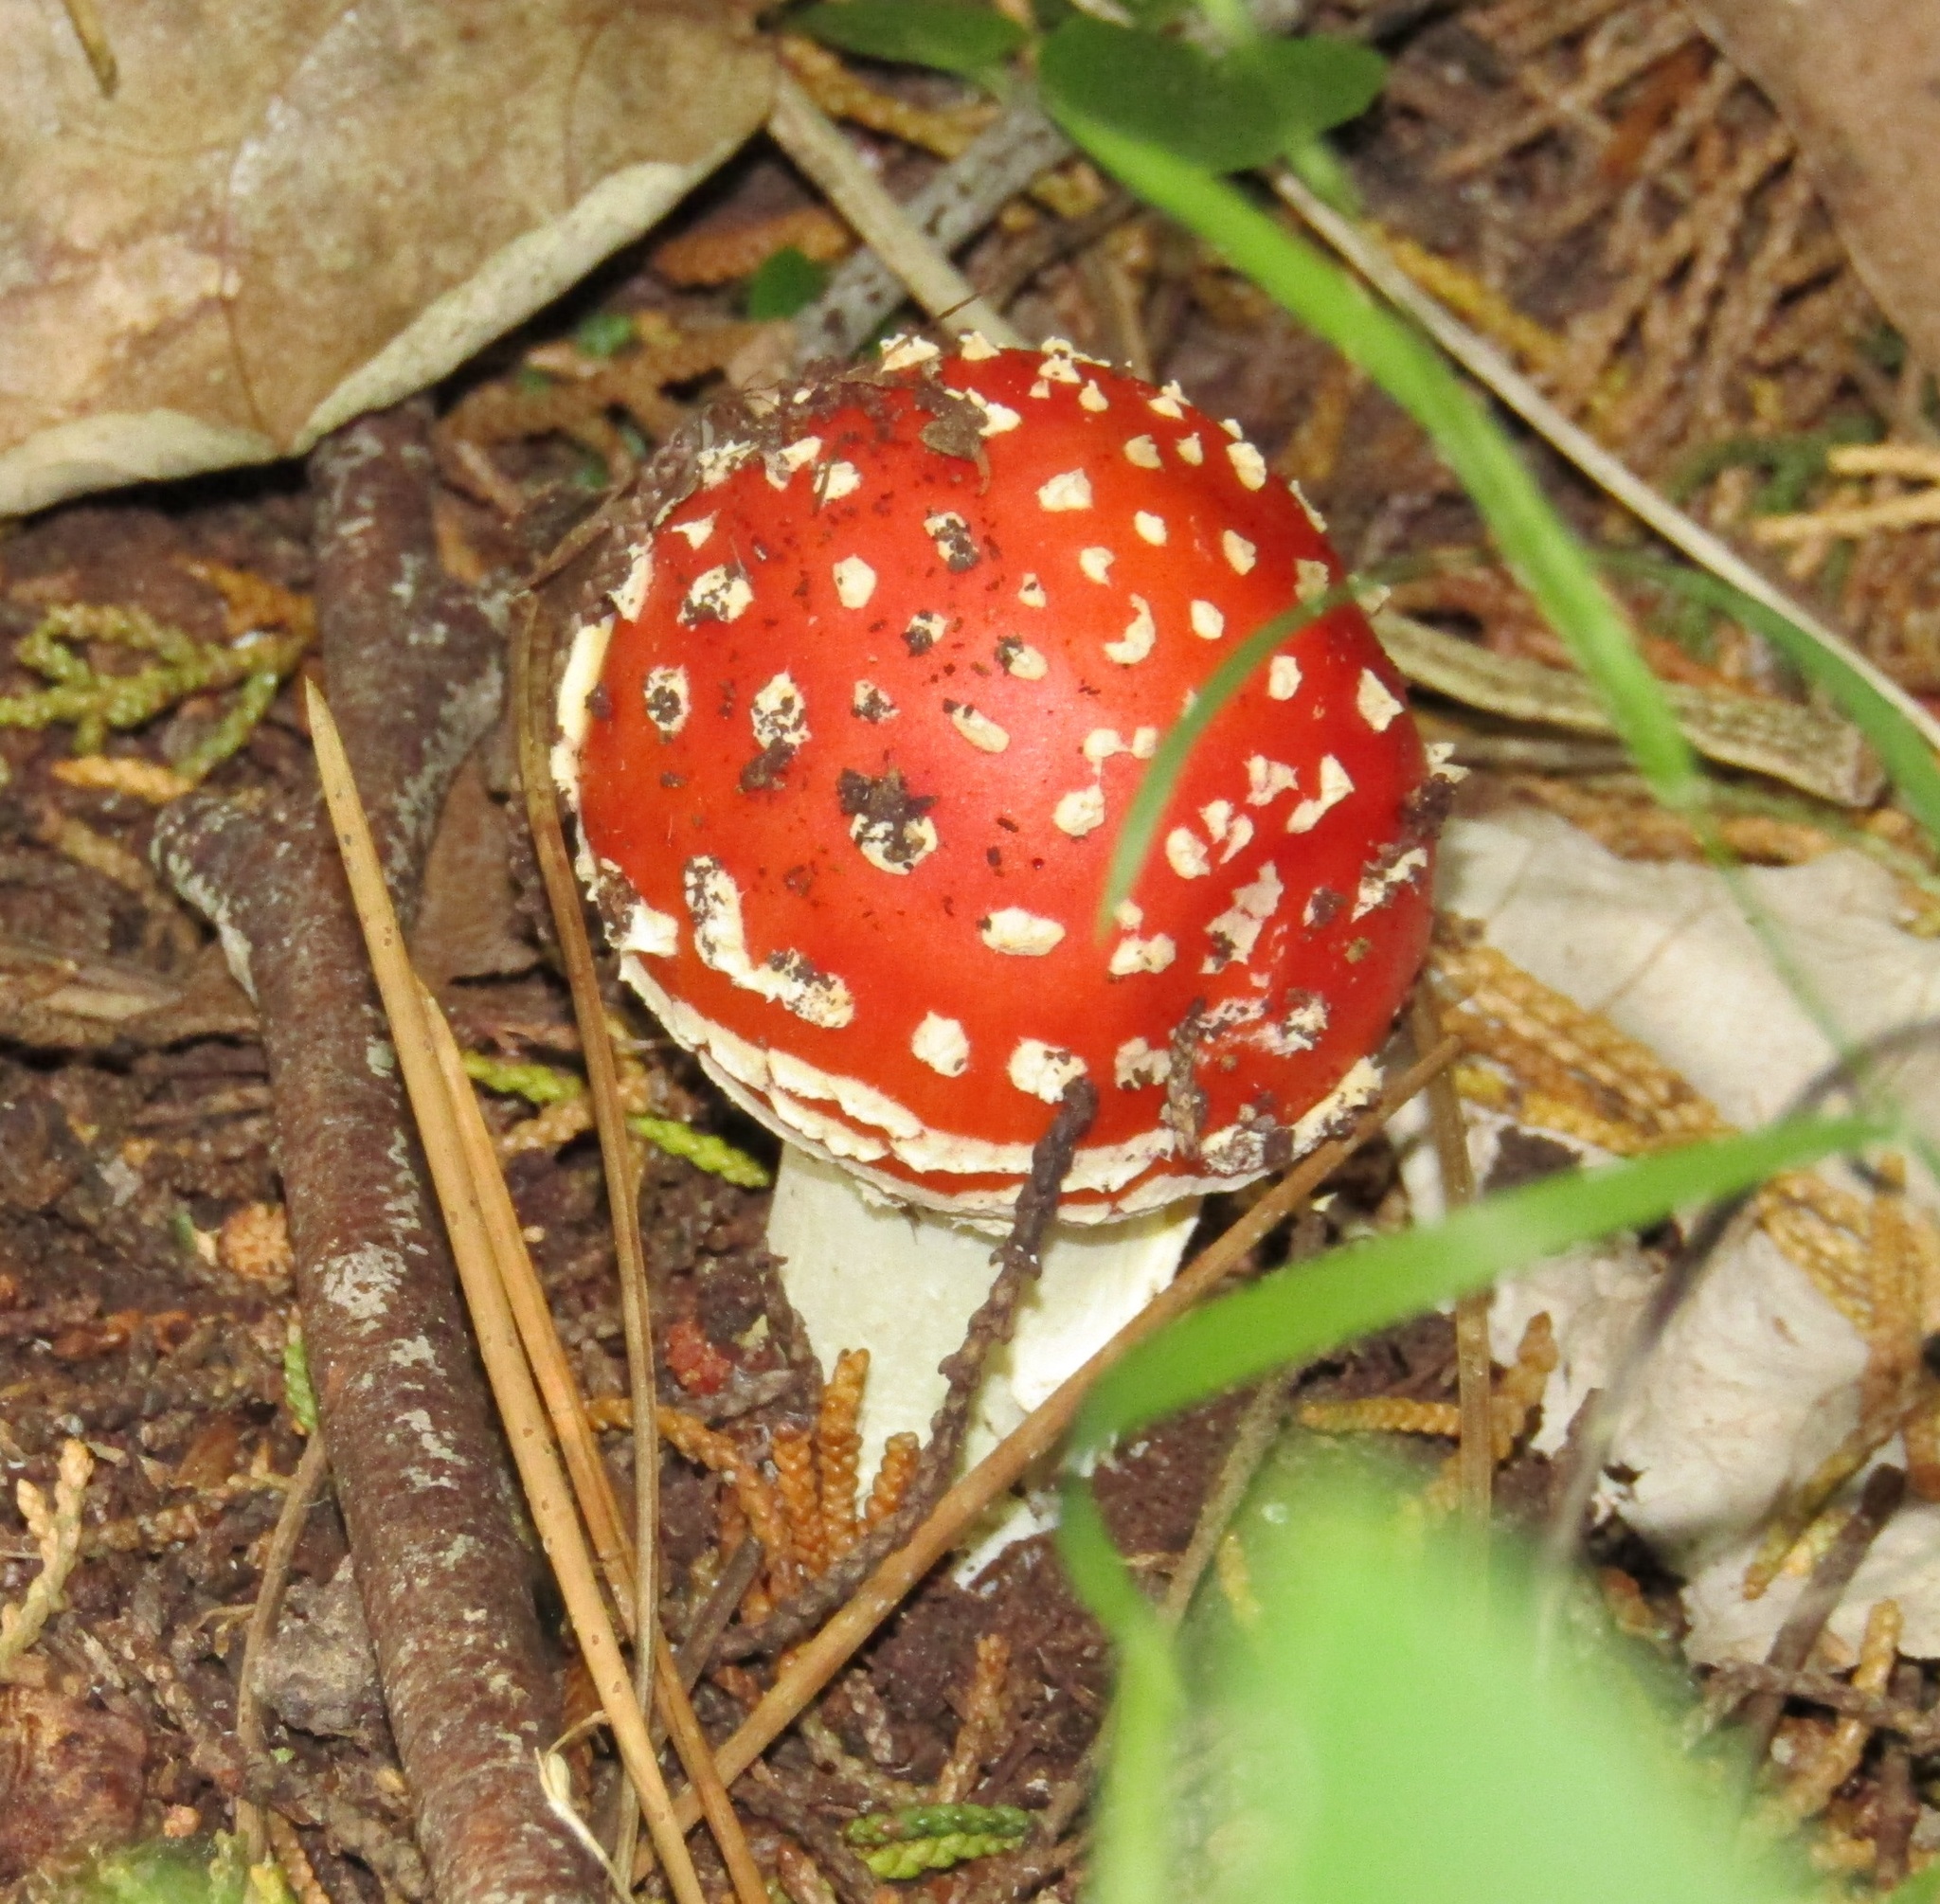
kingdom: Fungi
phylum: Basidiomycota
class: Agaricomycetes
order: Agaricales
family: Amanitaceae
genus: Amanita
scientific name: Amanita muscaria
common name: Fly agaric
